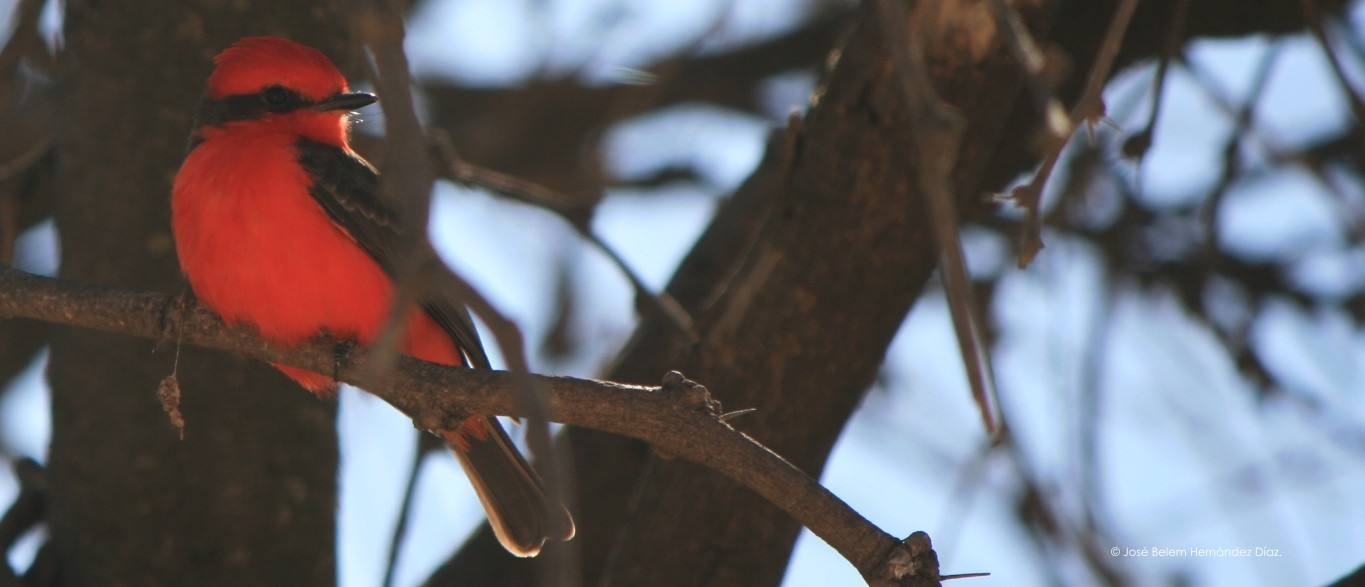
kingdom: Animalia
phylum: Chordata
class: Aves
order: Passeriformes
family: Tyrannidae
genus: Pyrocephalus
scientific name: Pyrocephalus rubinus
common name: Vermilion flycatcher
